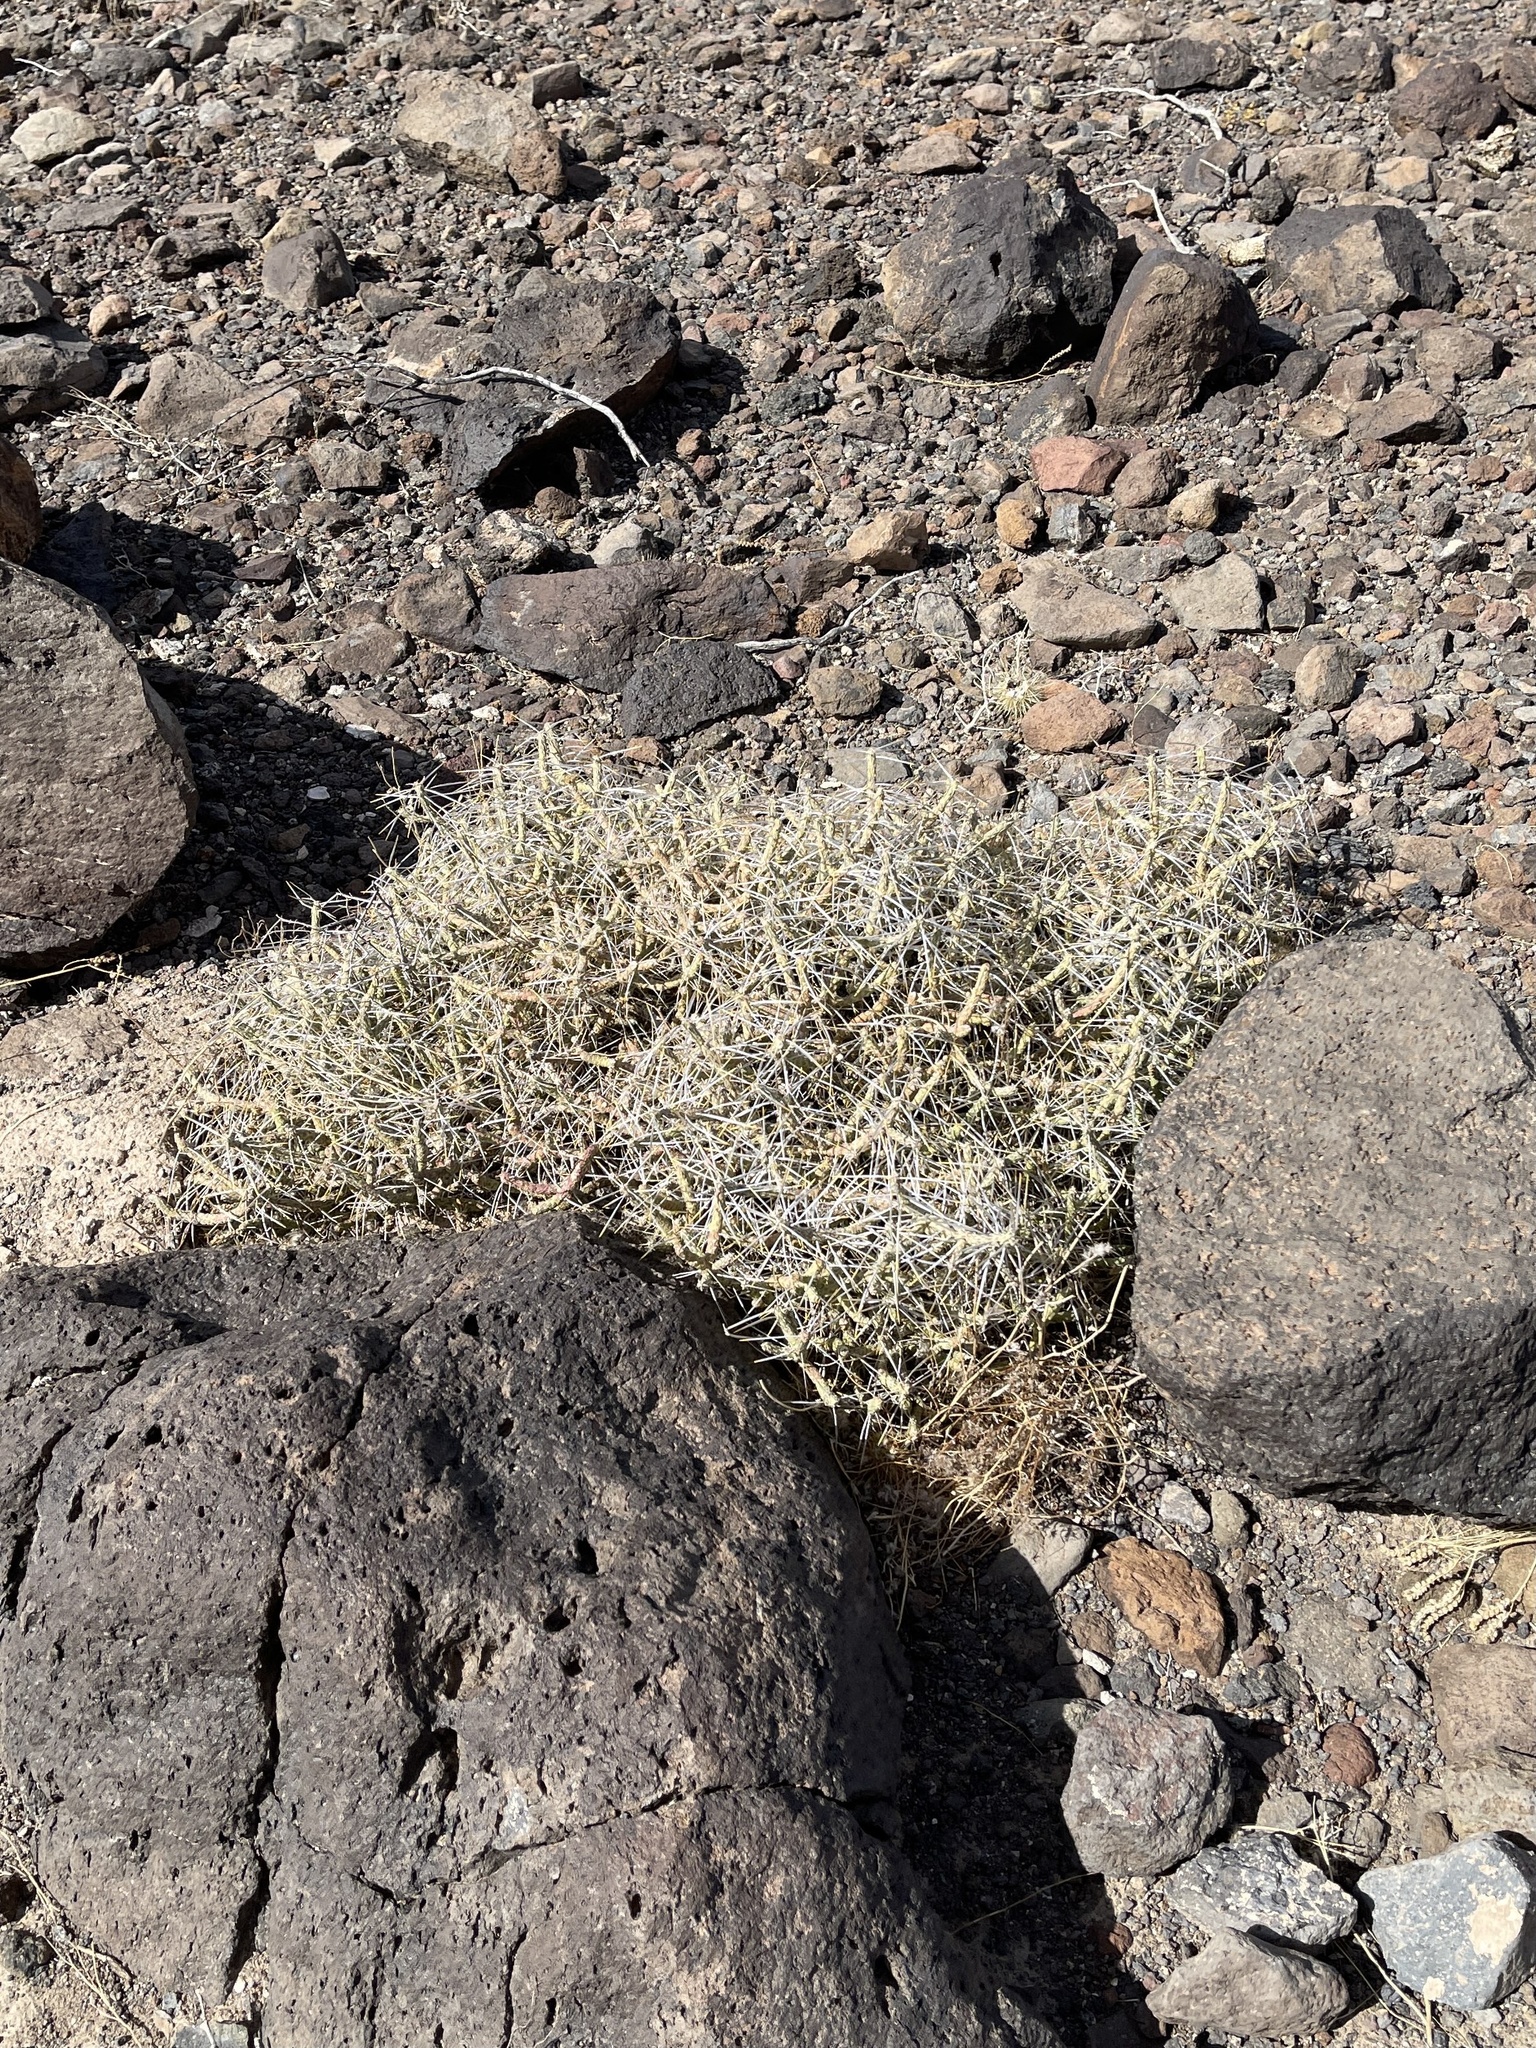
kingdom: Plantae
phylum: Tracheophyta
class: Magnoliopsida
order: Caryophyllales
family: Cactaceae
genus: Cylindropuntia
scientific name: Cylindropuntia ramosissima
